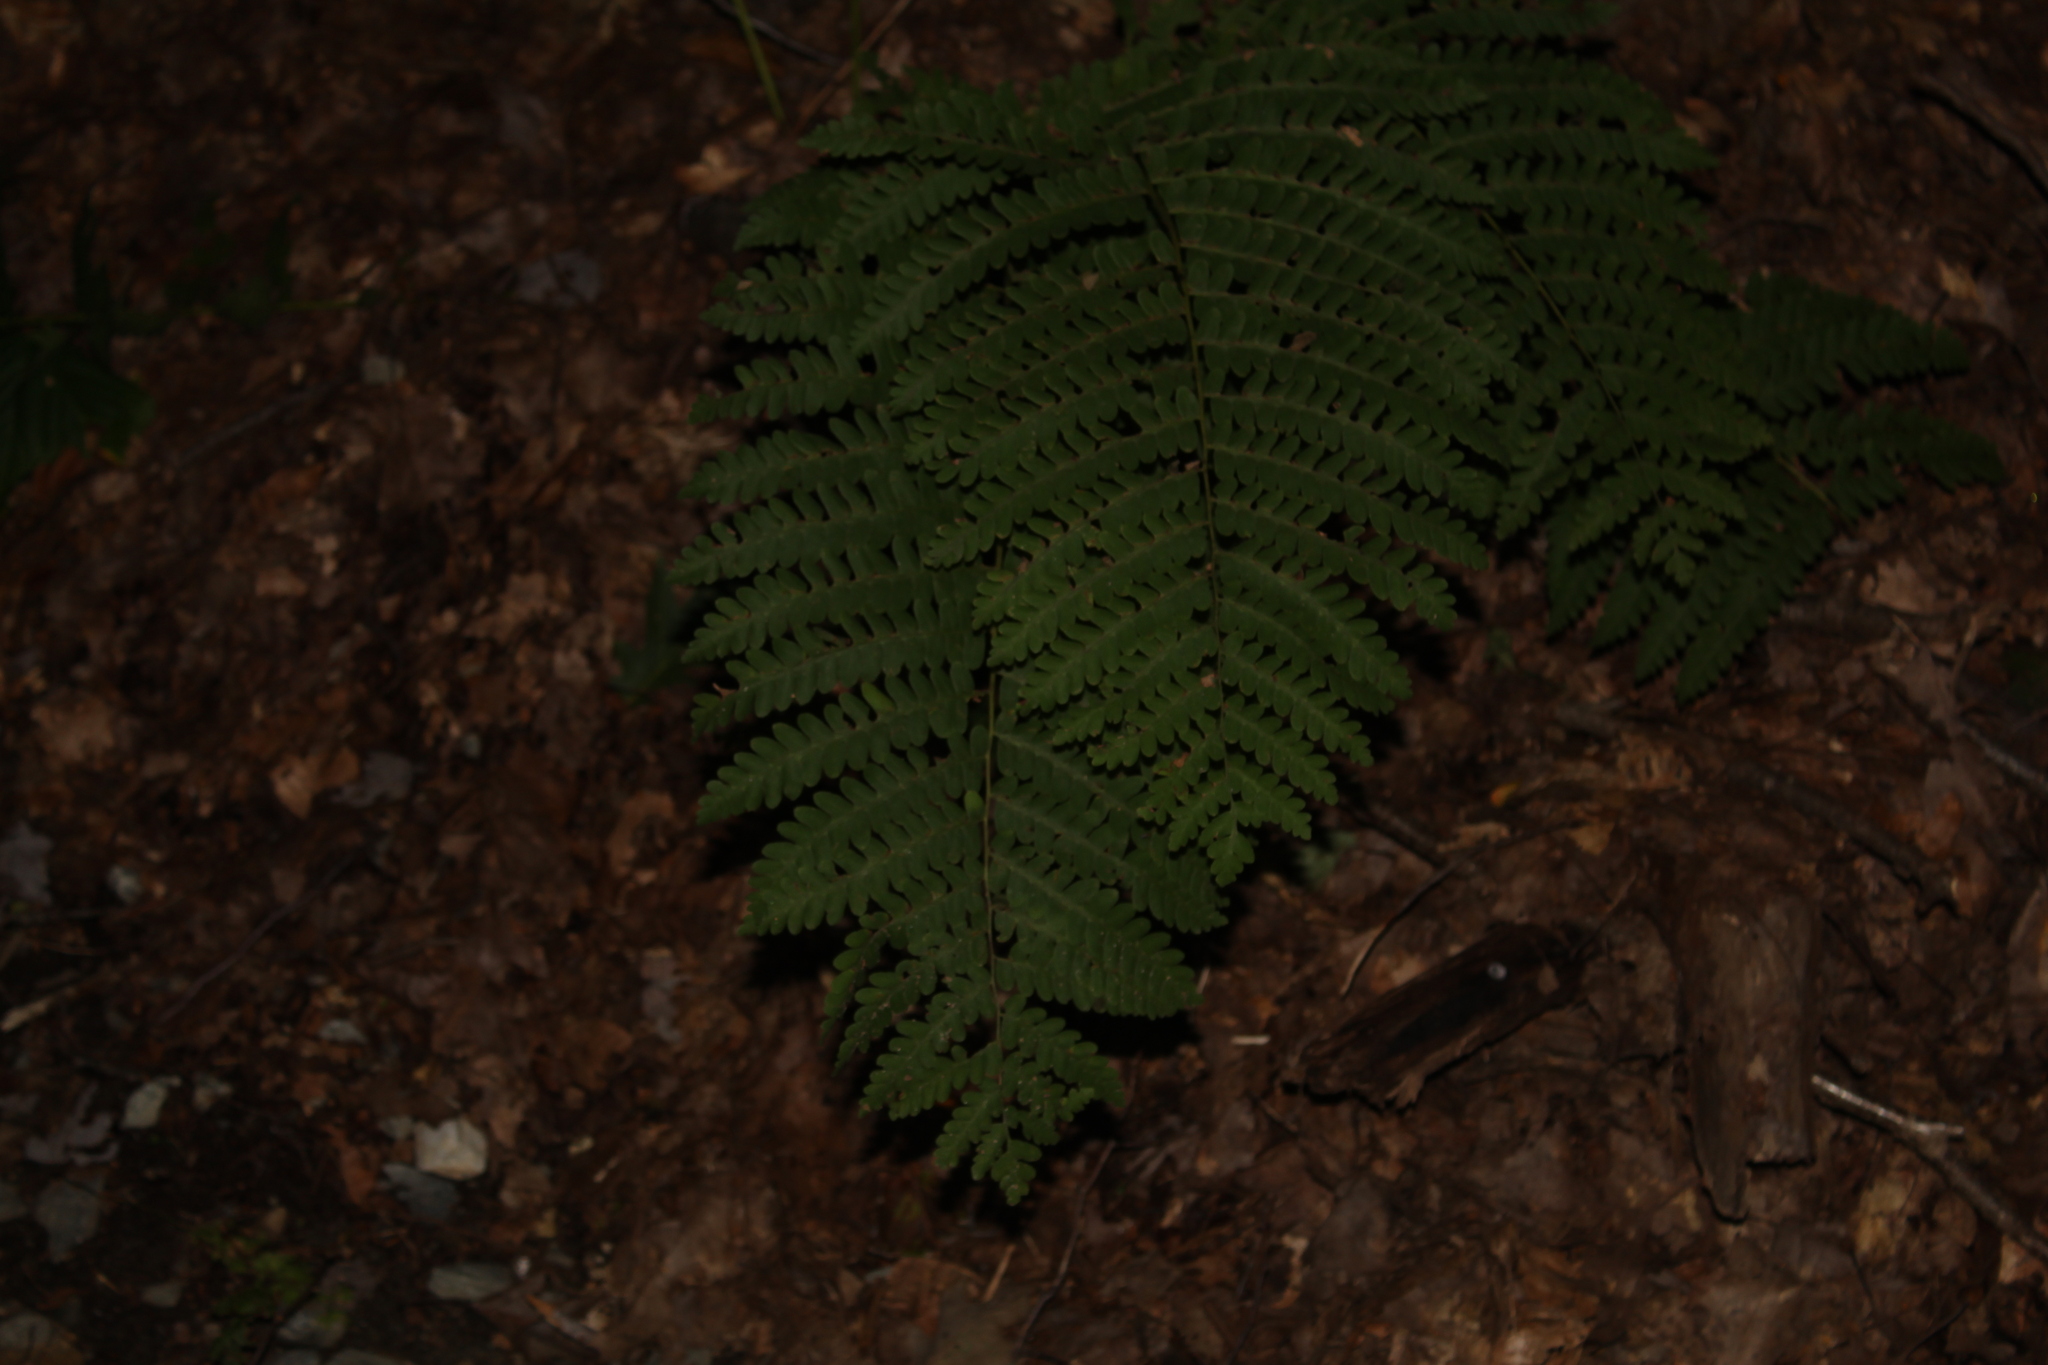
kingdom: Plantae
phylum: Tracheophyta
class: Polypodiopsida
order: Osmundales
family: Osmundaceae
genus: Claytosmunda
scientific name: Claytosmunda claytoniana
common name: Clayton's fern
